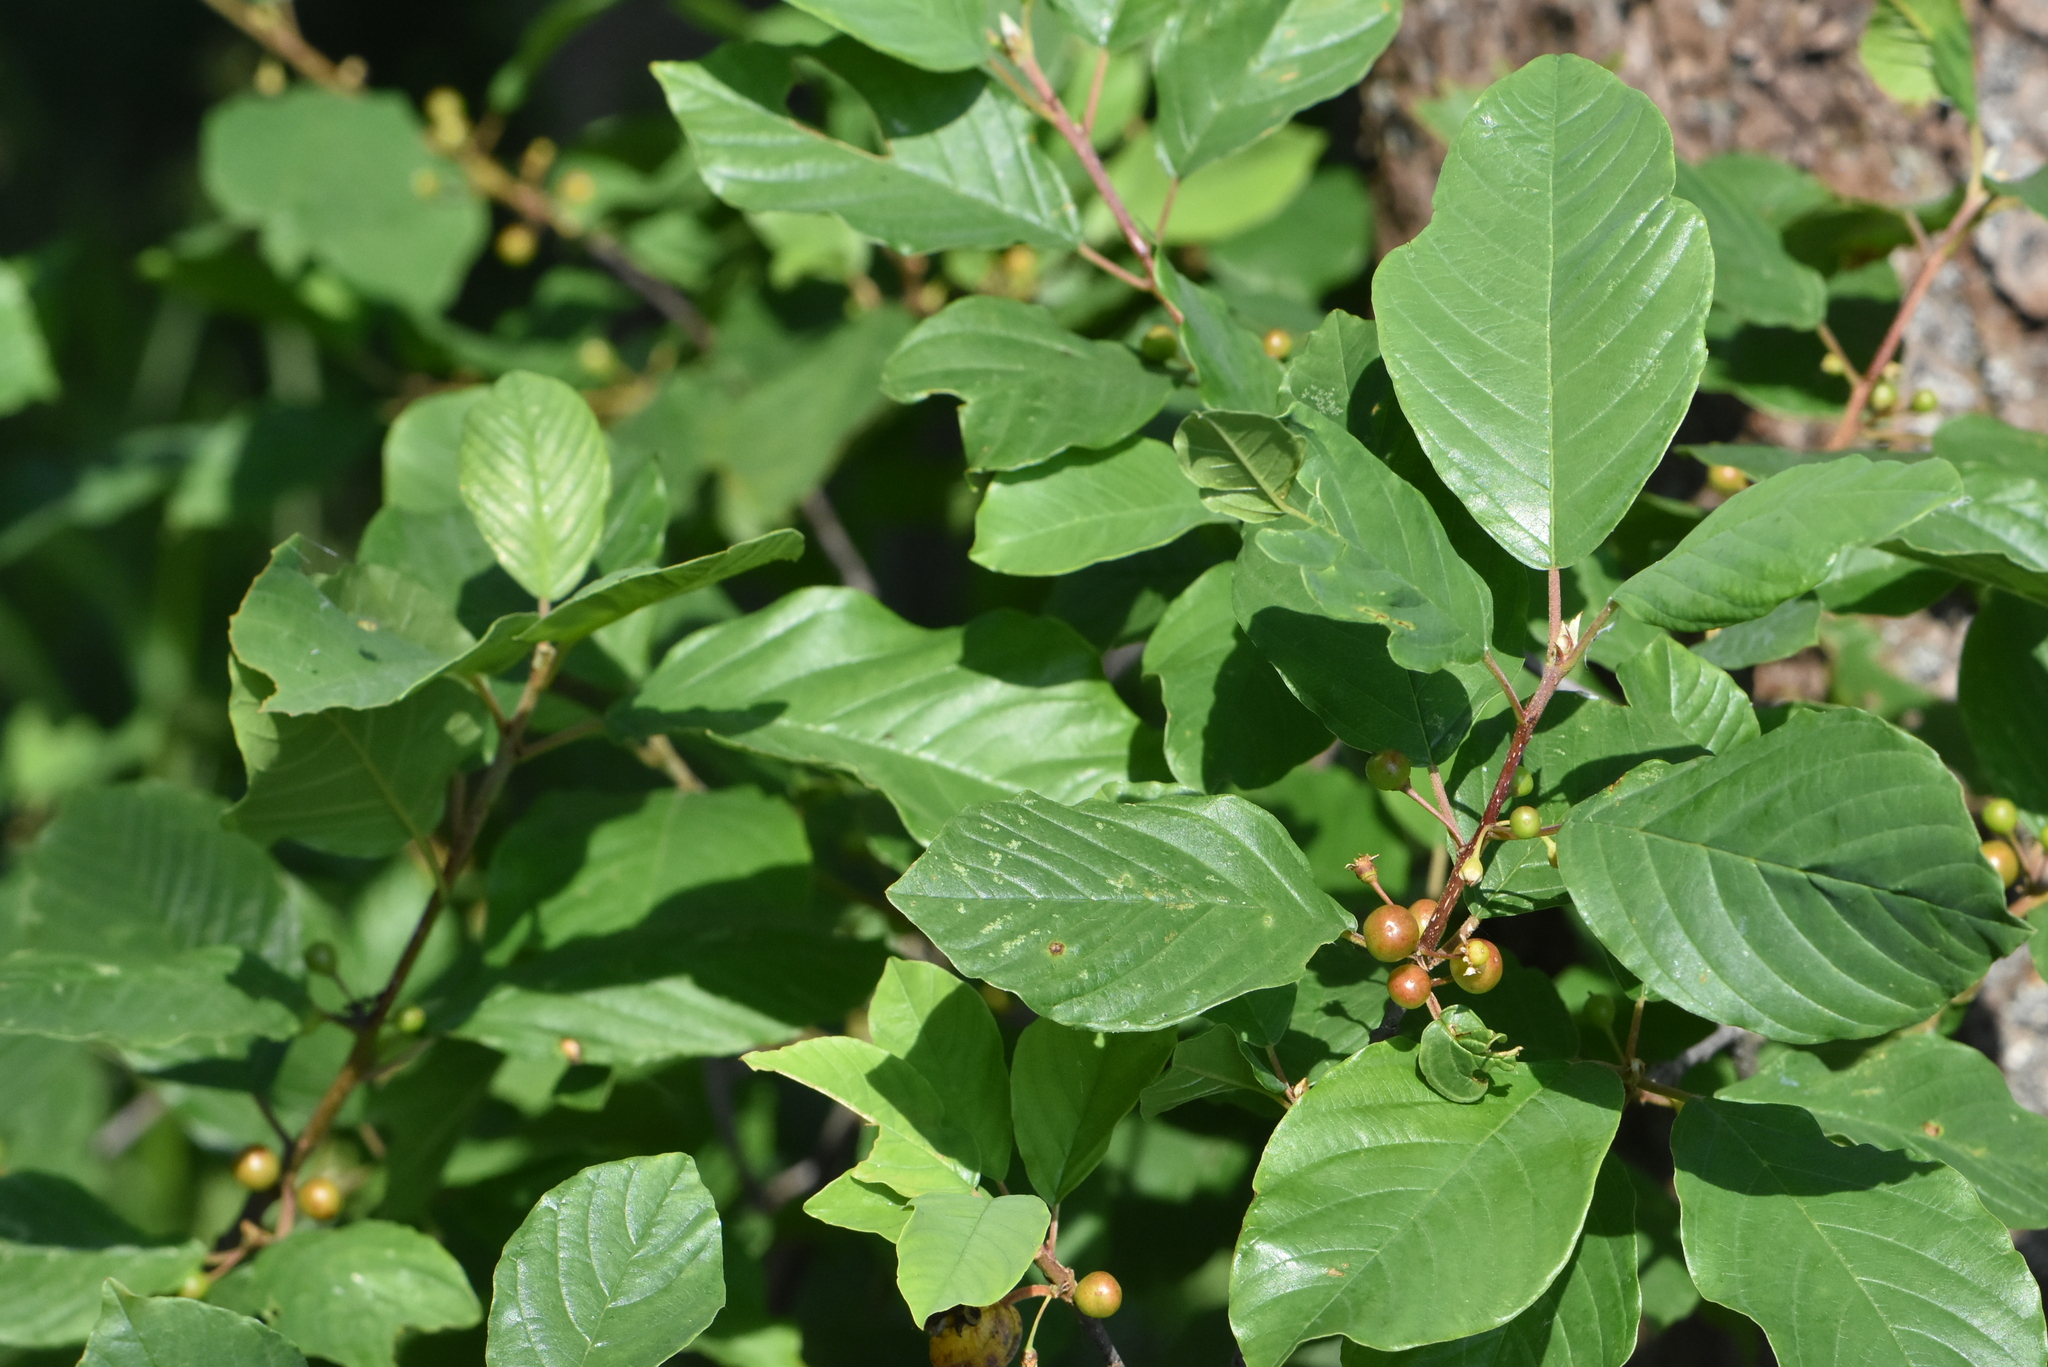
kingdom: Plantae
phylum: Tracheophyta
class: Magnoliopsida
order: Rosales
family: Rhamnaceae
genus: Frangula
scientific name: Frangula alnus
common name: Alder buckthorn
